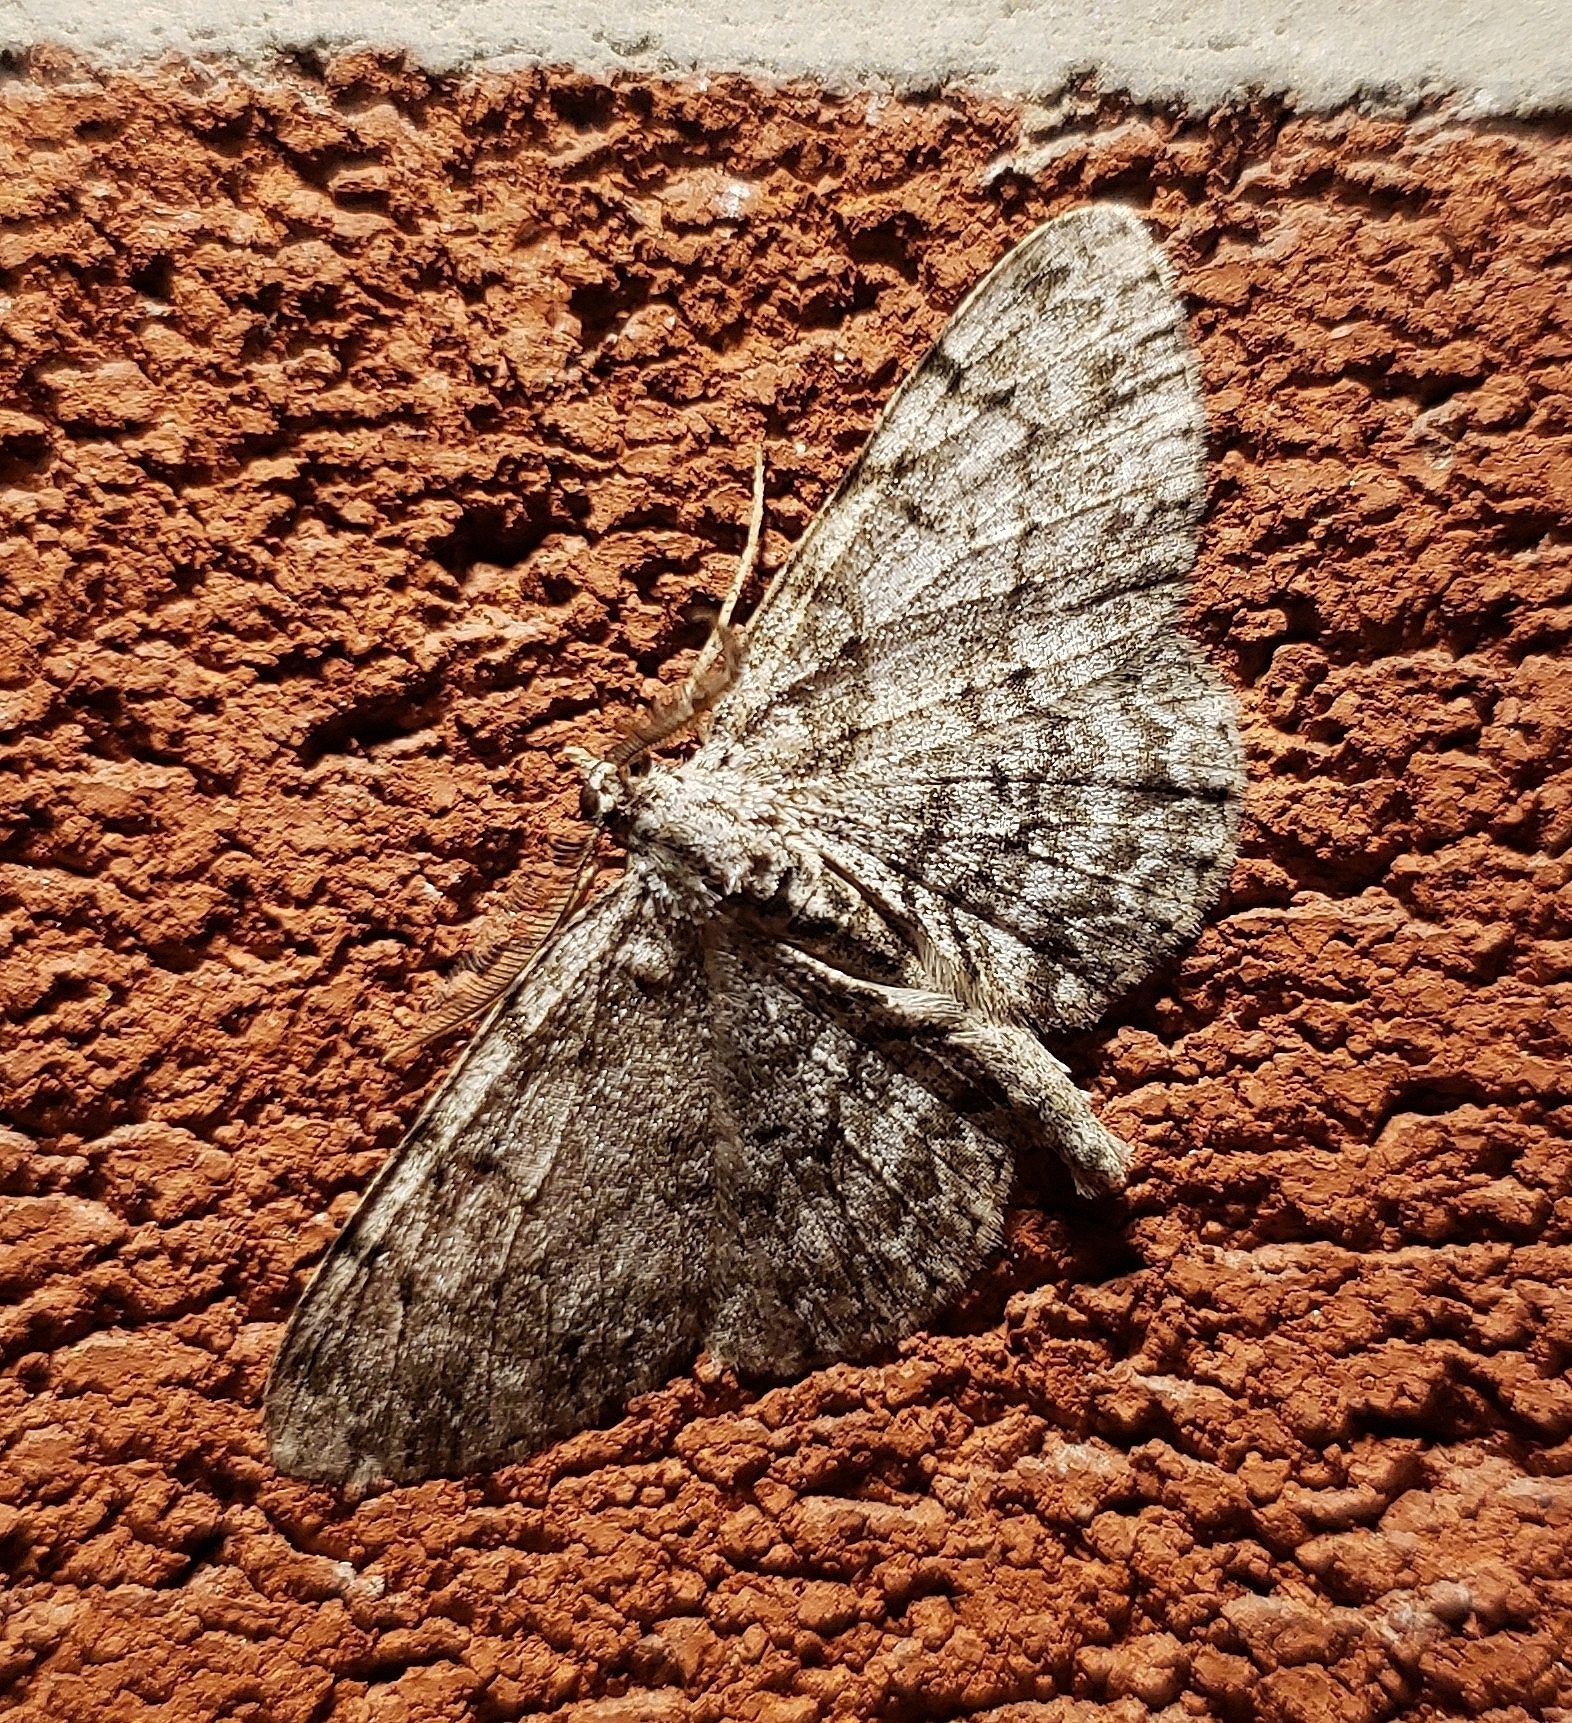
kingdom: Animalia
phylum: Arthropoda
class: Insecta
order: Lepidoptera
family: Geometridae
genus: Protoboarmia
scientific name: Protoboarmia porcelaria
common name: Porcelain gray
